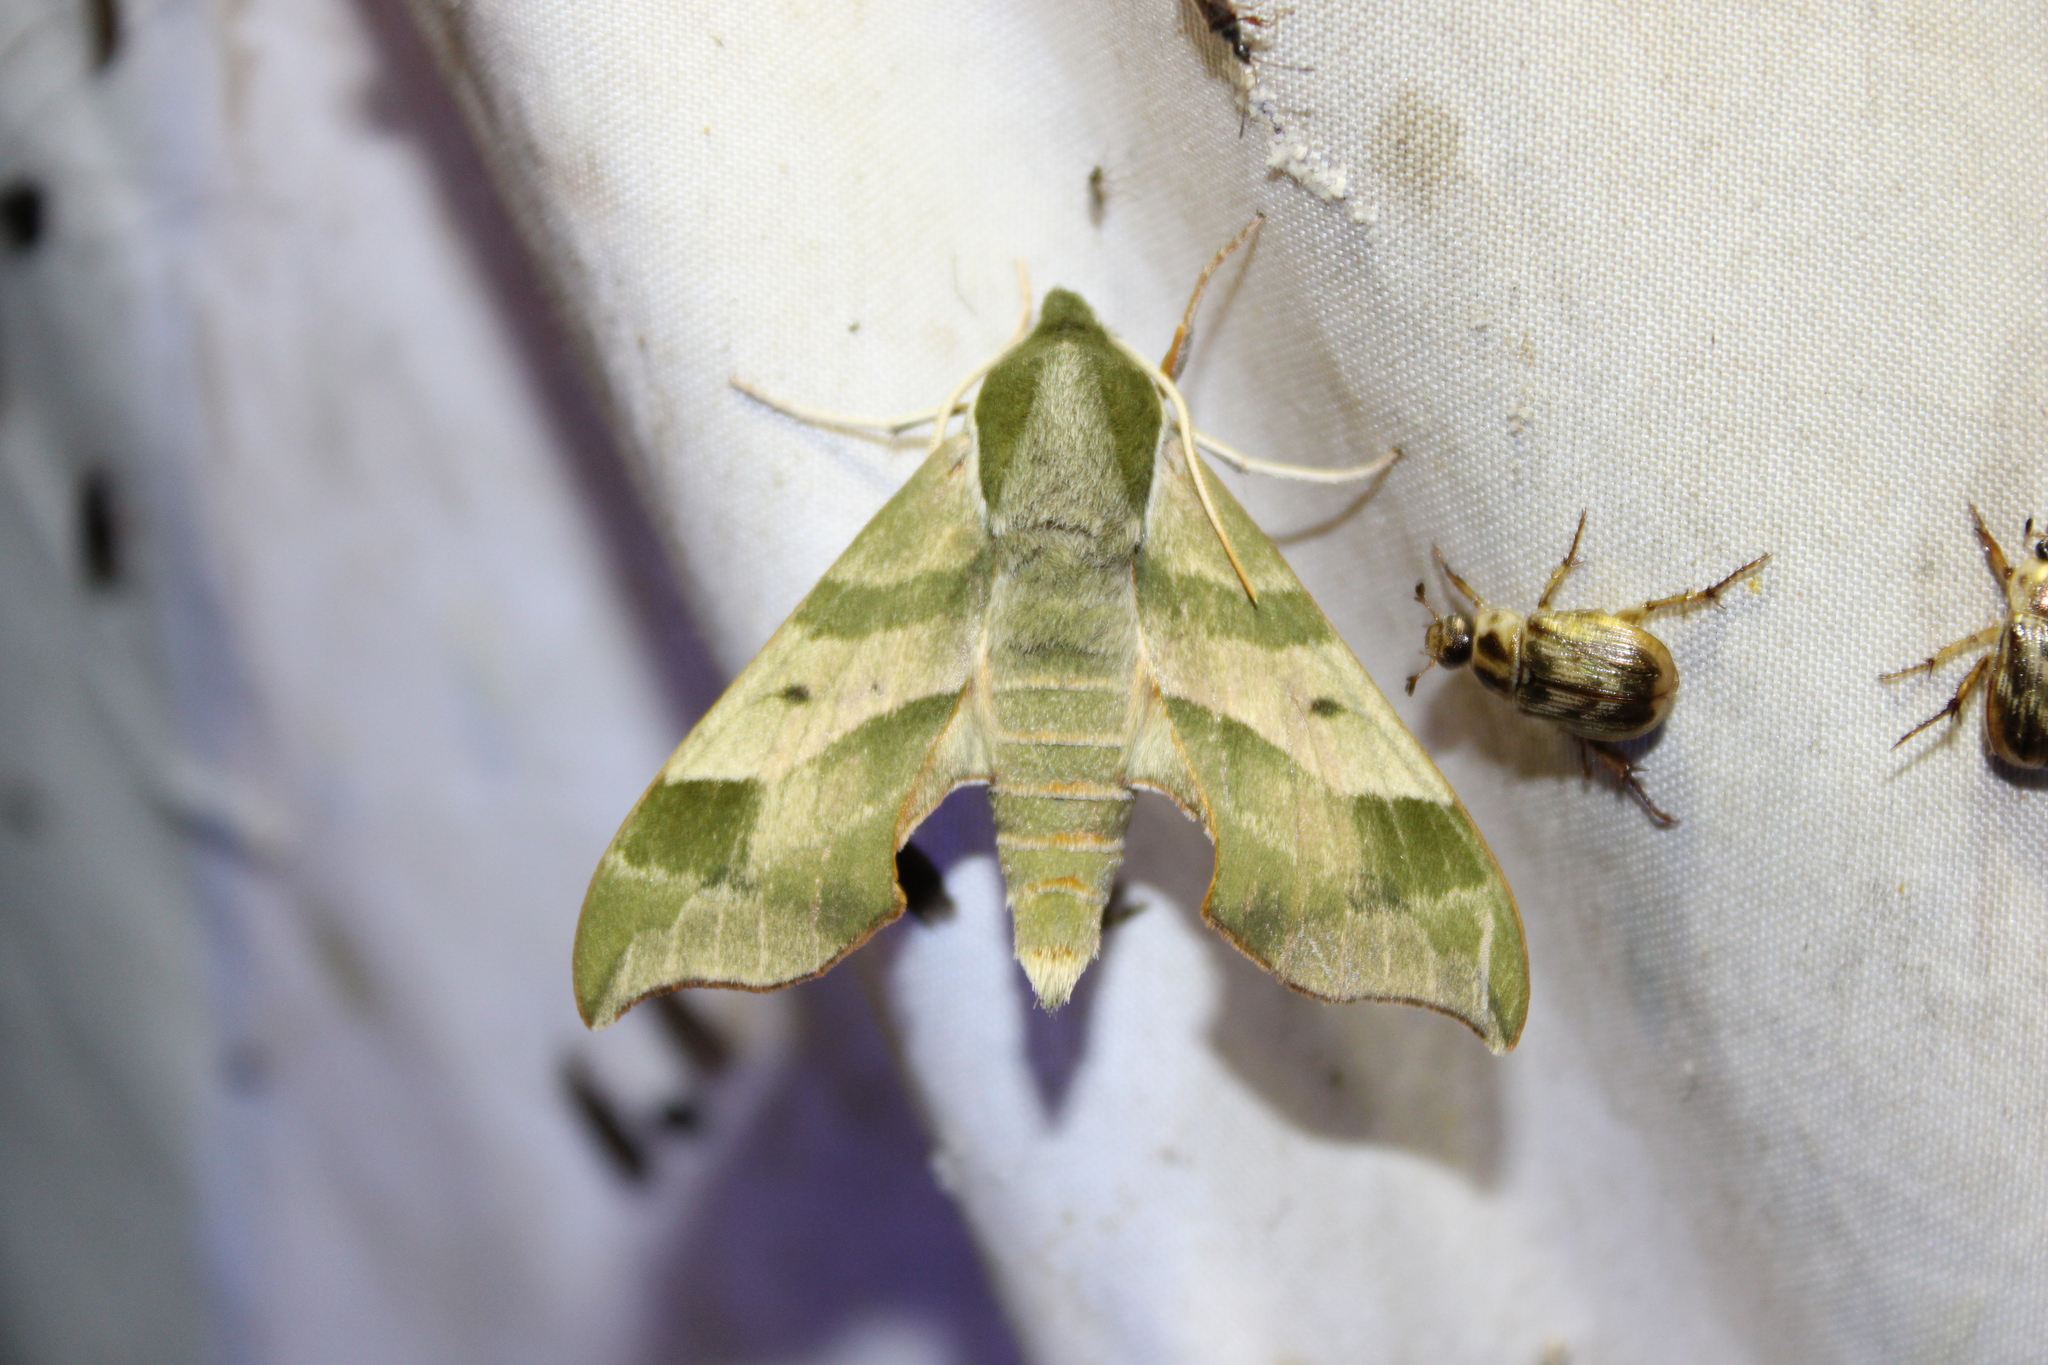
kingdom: Animalia
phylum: Arthropoda
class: Insecta
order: Lepidoptera
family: Sphingidae
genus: Darapsa
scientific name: Darapsa myron
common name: Hog sphinx
